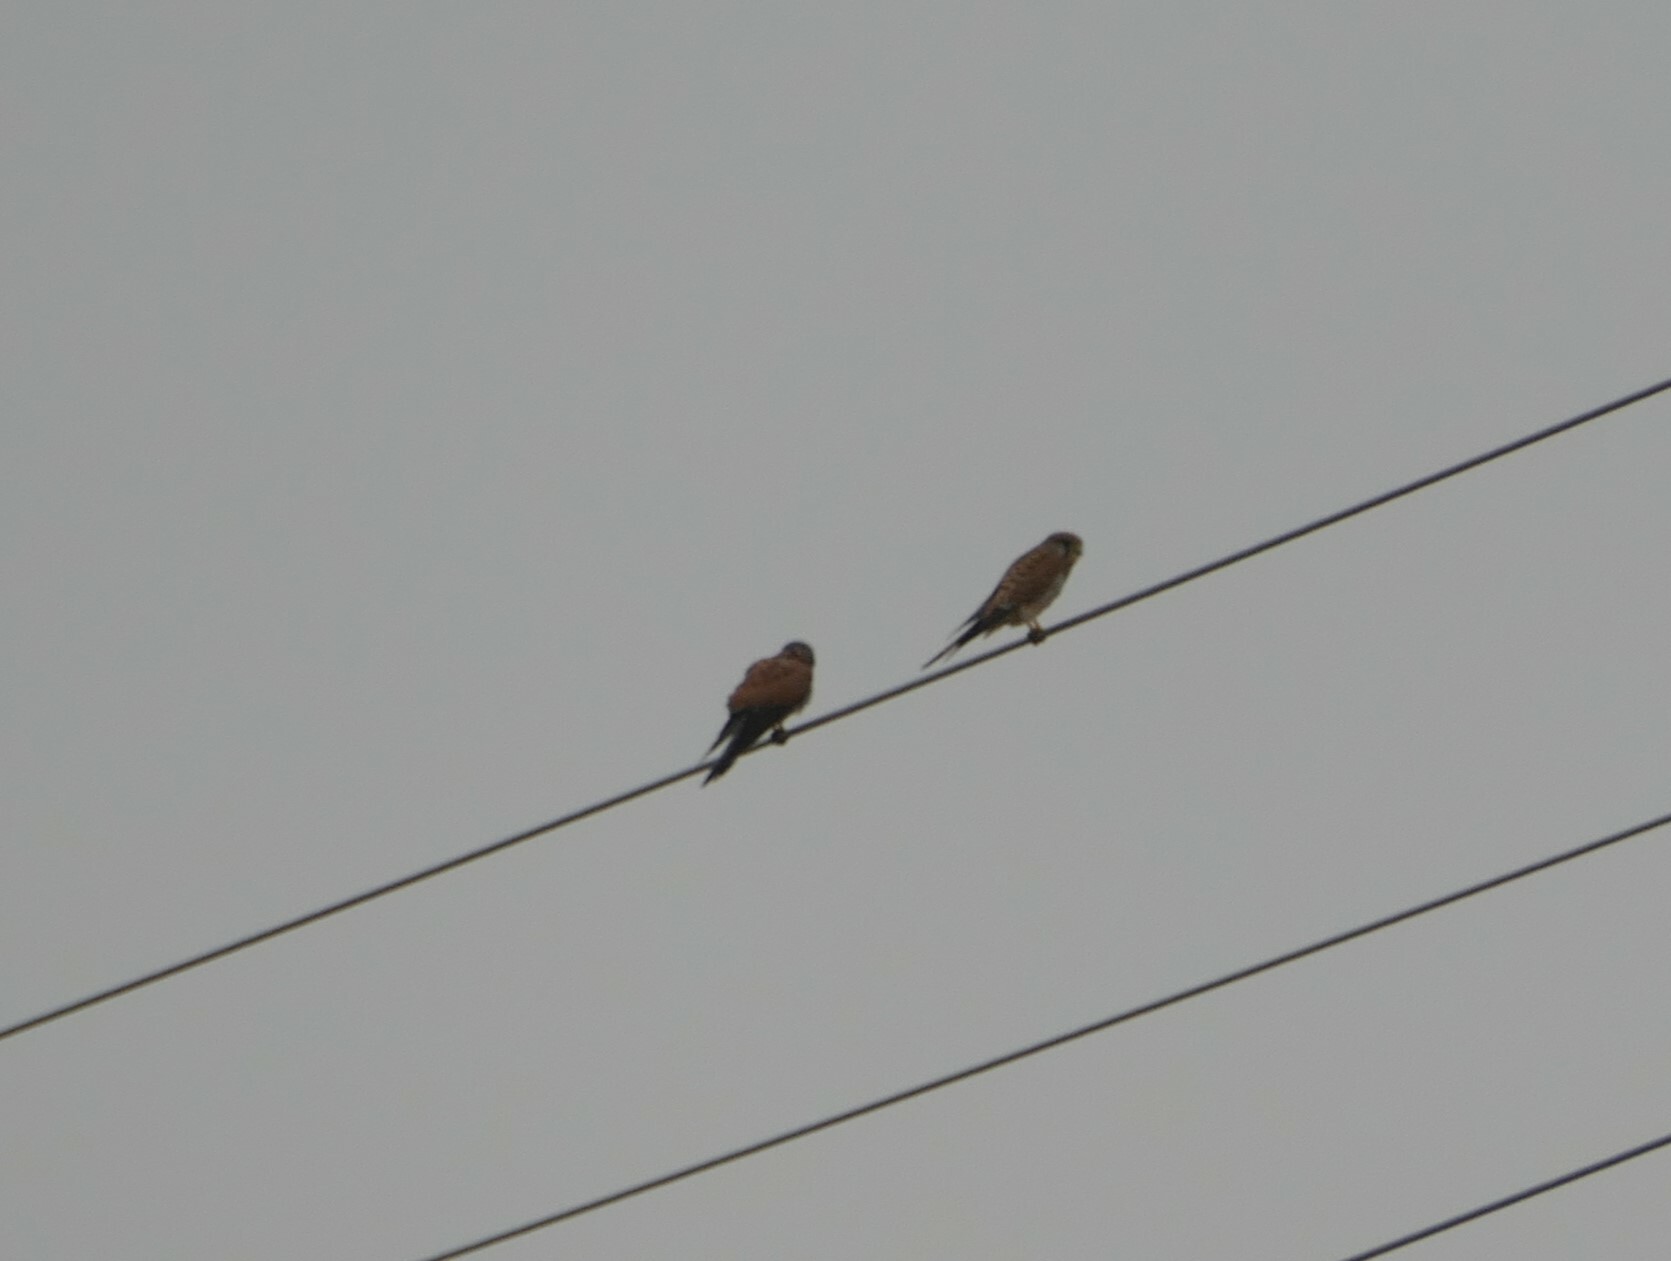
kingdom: Animalia
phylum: Chordata
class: Aves
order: Falconiformes
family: Falconidae
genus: Falco
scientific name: Falco tinnunculus
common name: Common kestrel
